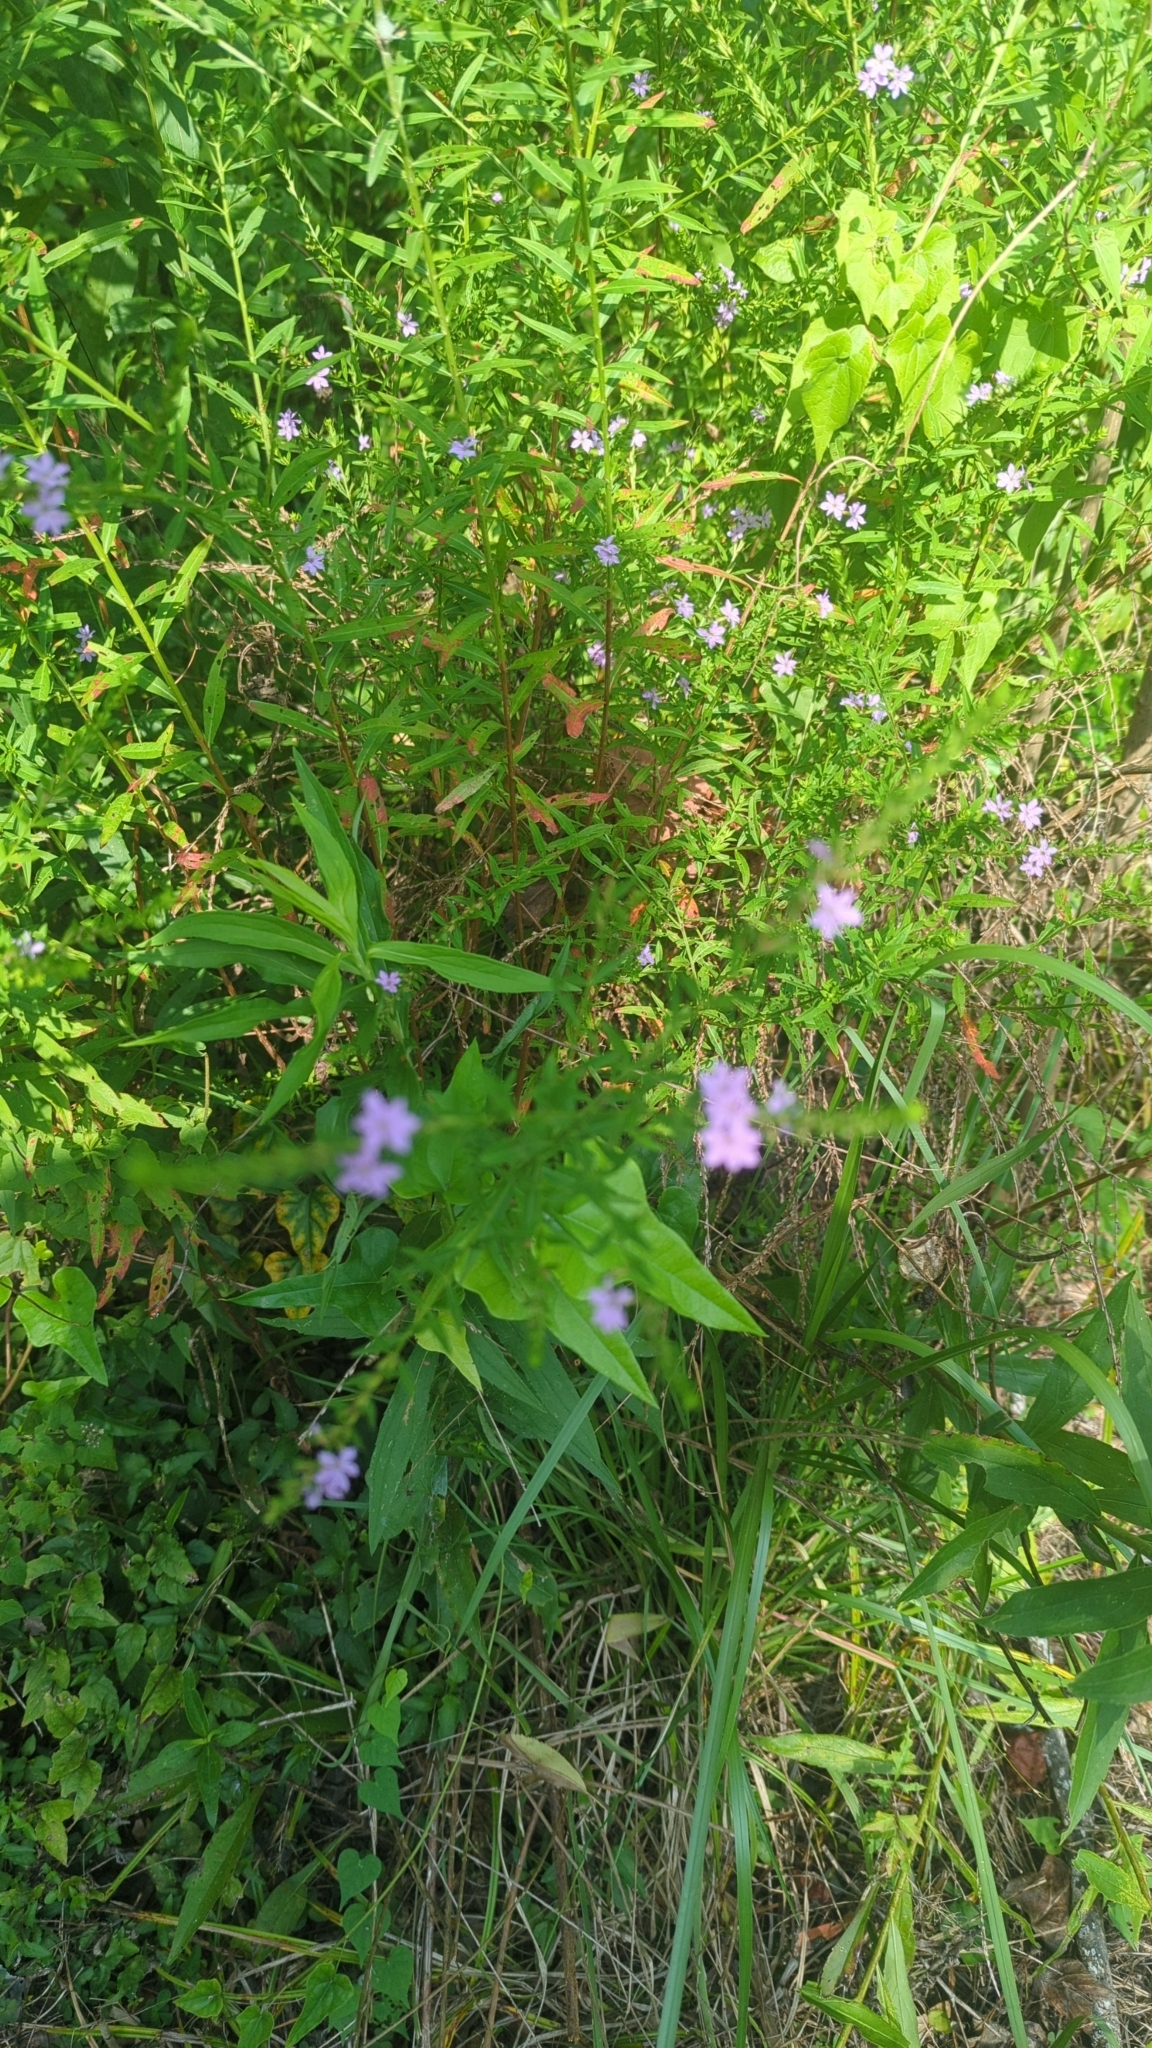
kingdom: Plantae
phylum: Tracheophyta
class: Magnoliopsida
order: Myrtales
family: Lythraceae
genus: Lythrum
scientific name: Lythrum alatum
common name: Winged loosestrife
